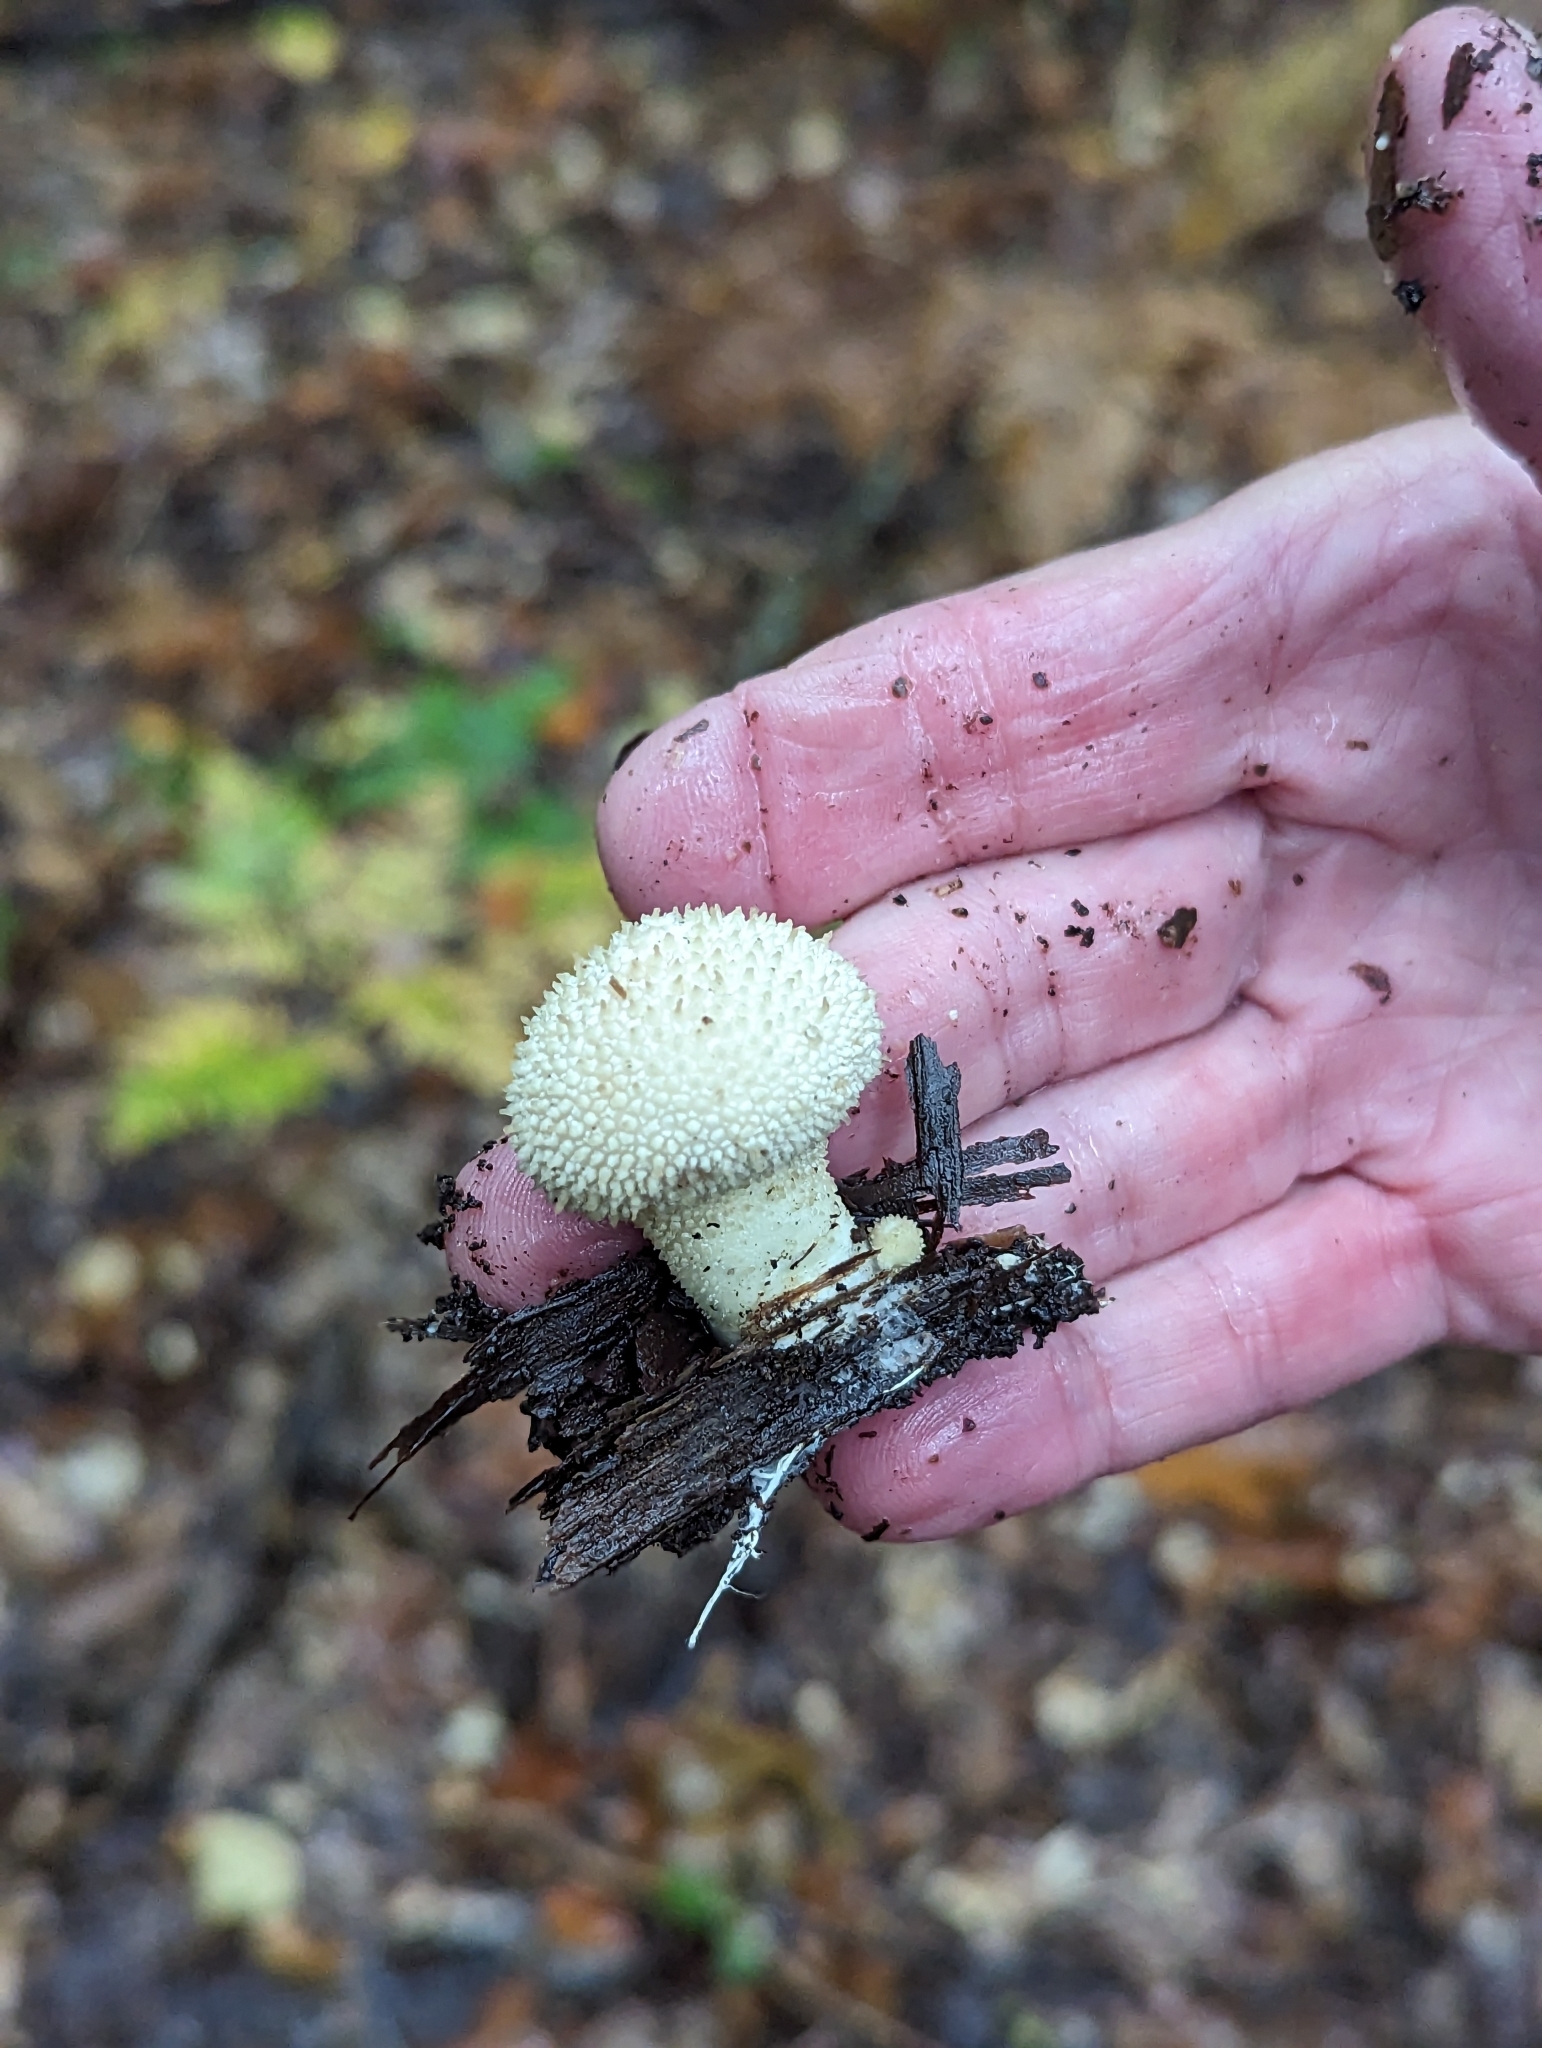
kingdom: Fungi
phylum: Basidiomycota
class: Agaricomycetes
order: Agaricales
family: Lycoperdaceae
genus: Lycoperdon
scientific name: Lycoperdon perlatum
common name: Common puffball
